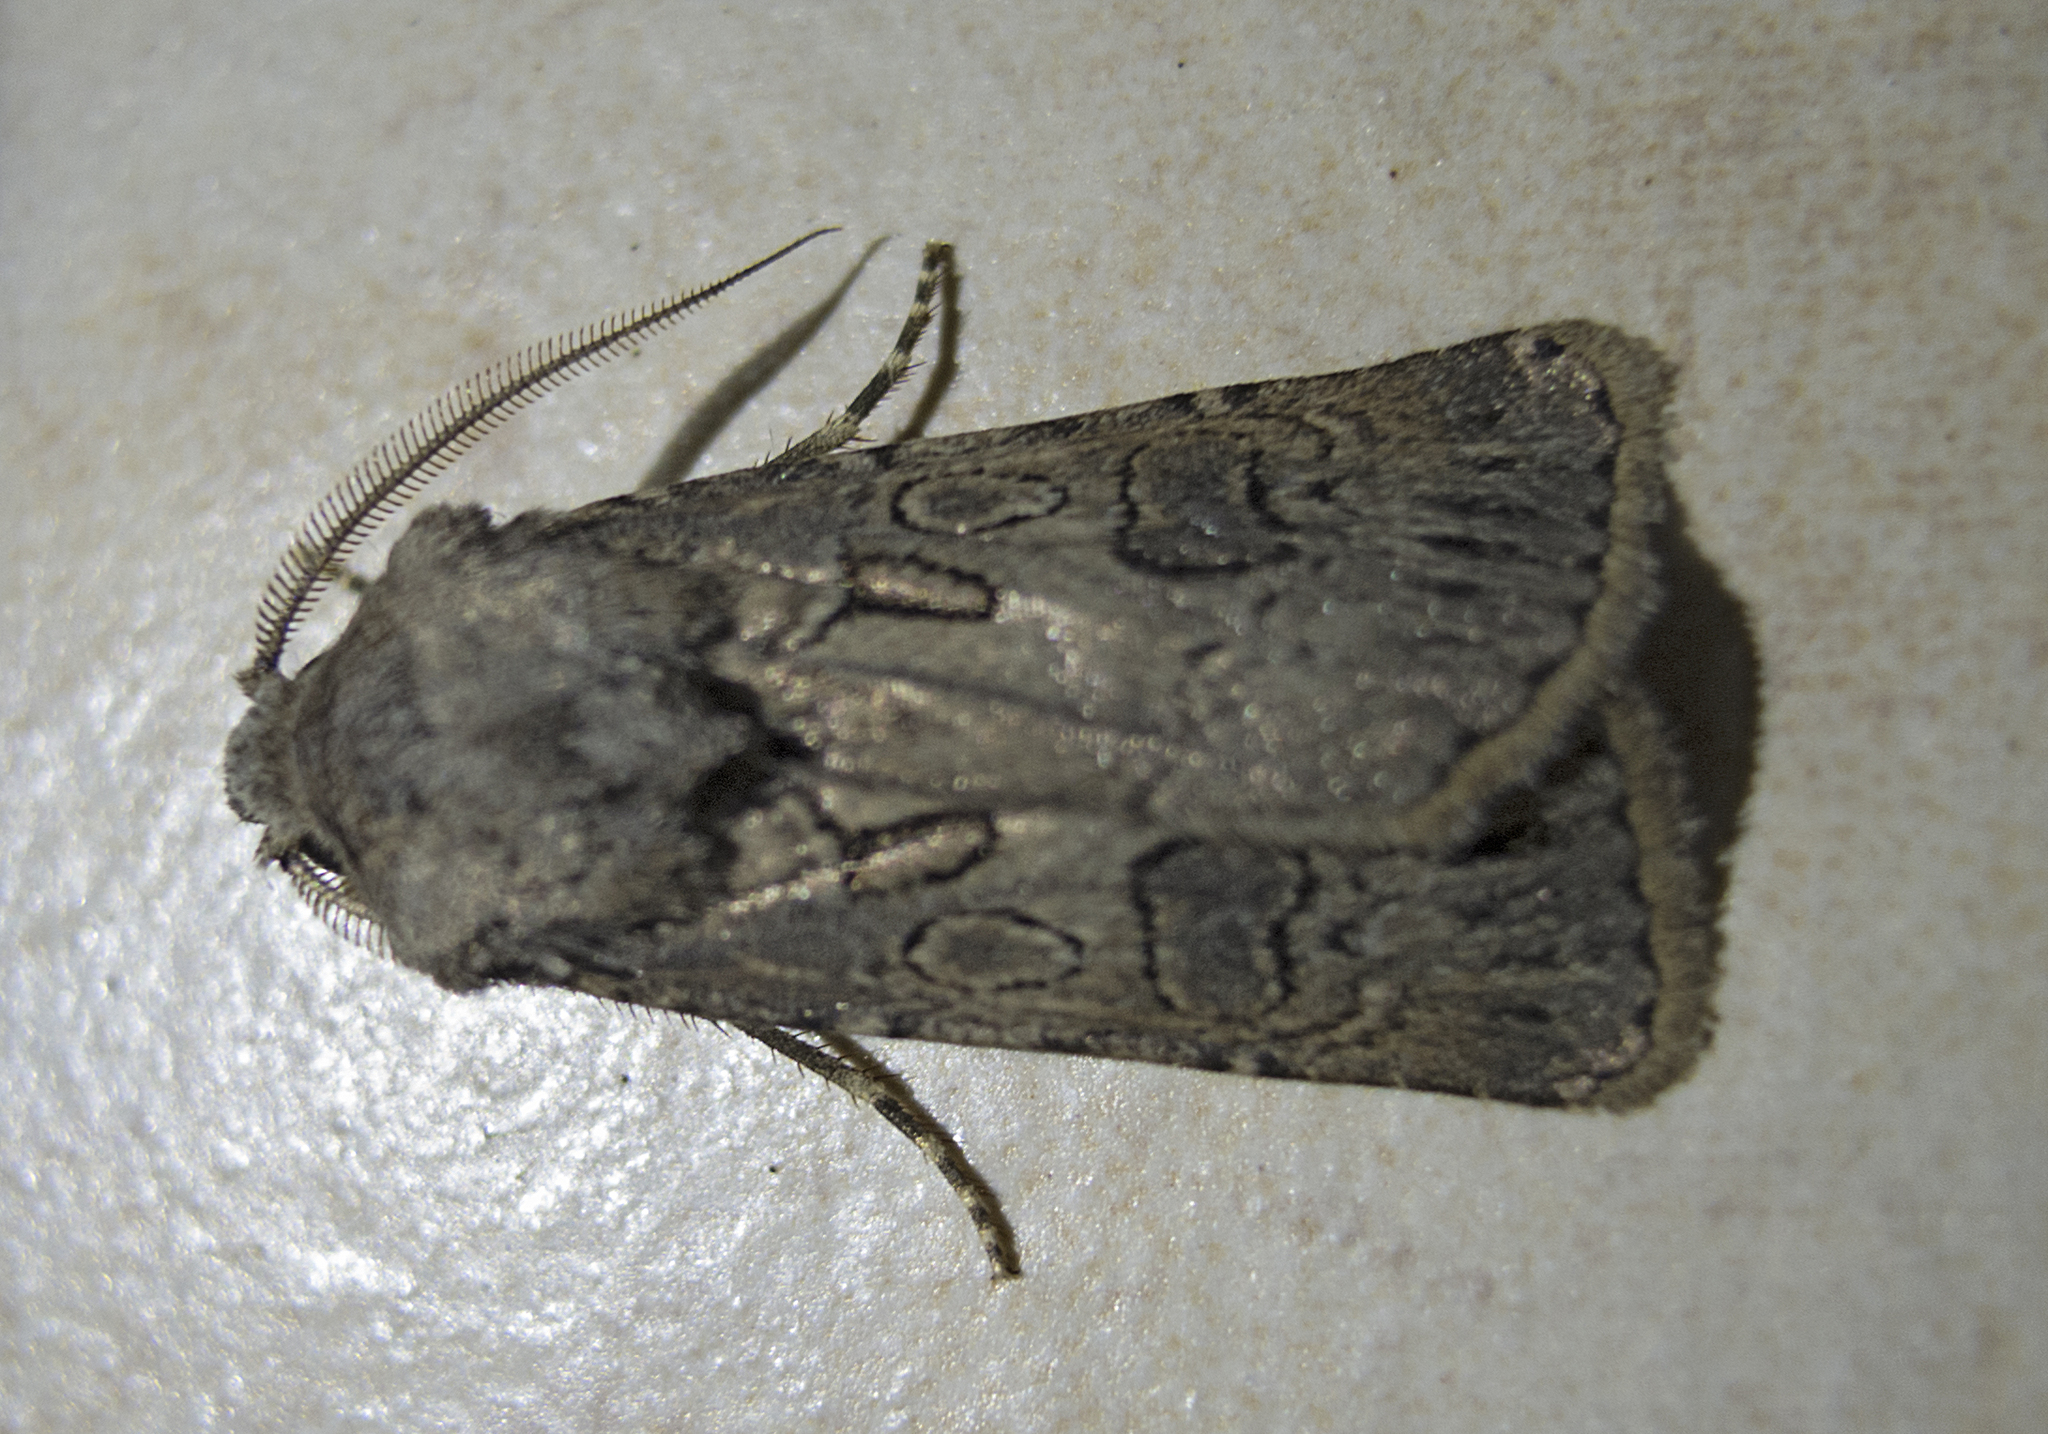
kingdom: Animalia
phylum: Arthropoda
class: Insecta
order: Lepidoptera
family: Noctuidae
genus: Agrotis
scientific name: Agrotis bigramma
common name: Great dart
